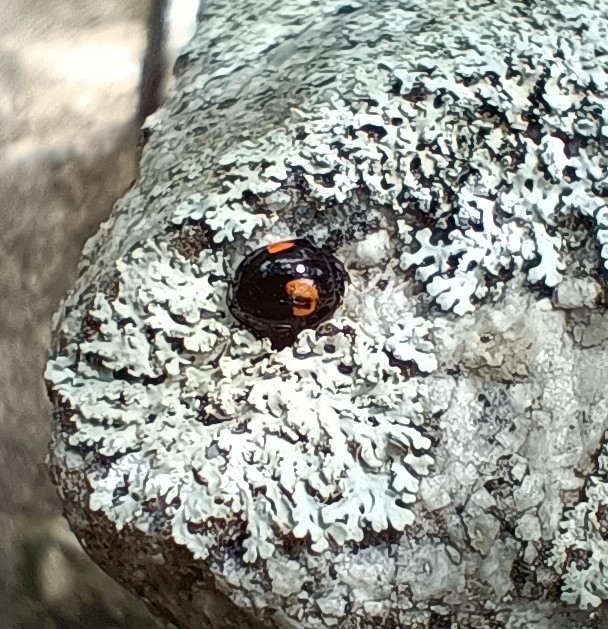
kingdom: Animalia
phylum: Arthropoda
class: Insecta
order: Coleoptera
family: Coccinellidae
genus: Harmonia
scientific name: Harmonia axyridis
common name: Harlequin ladybird
